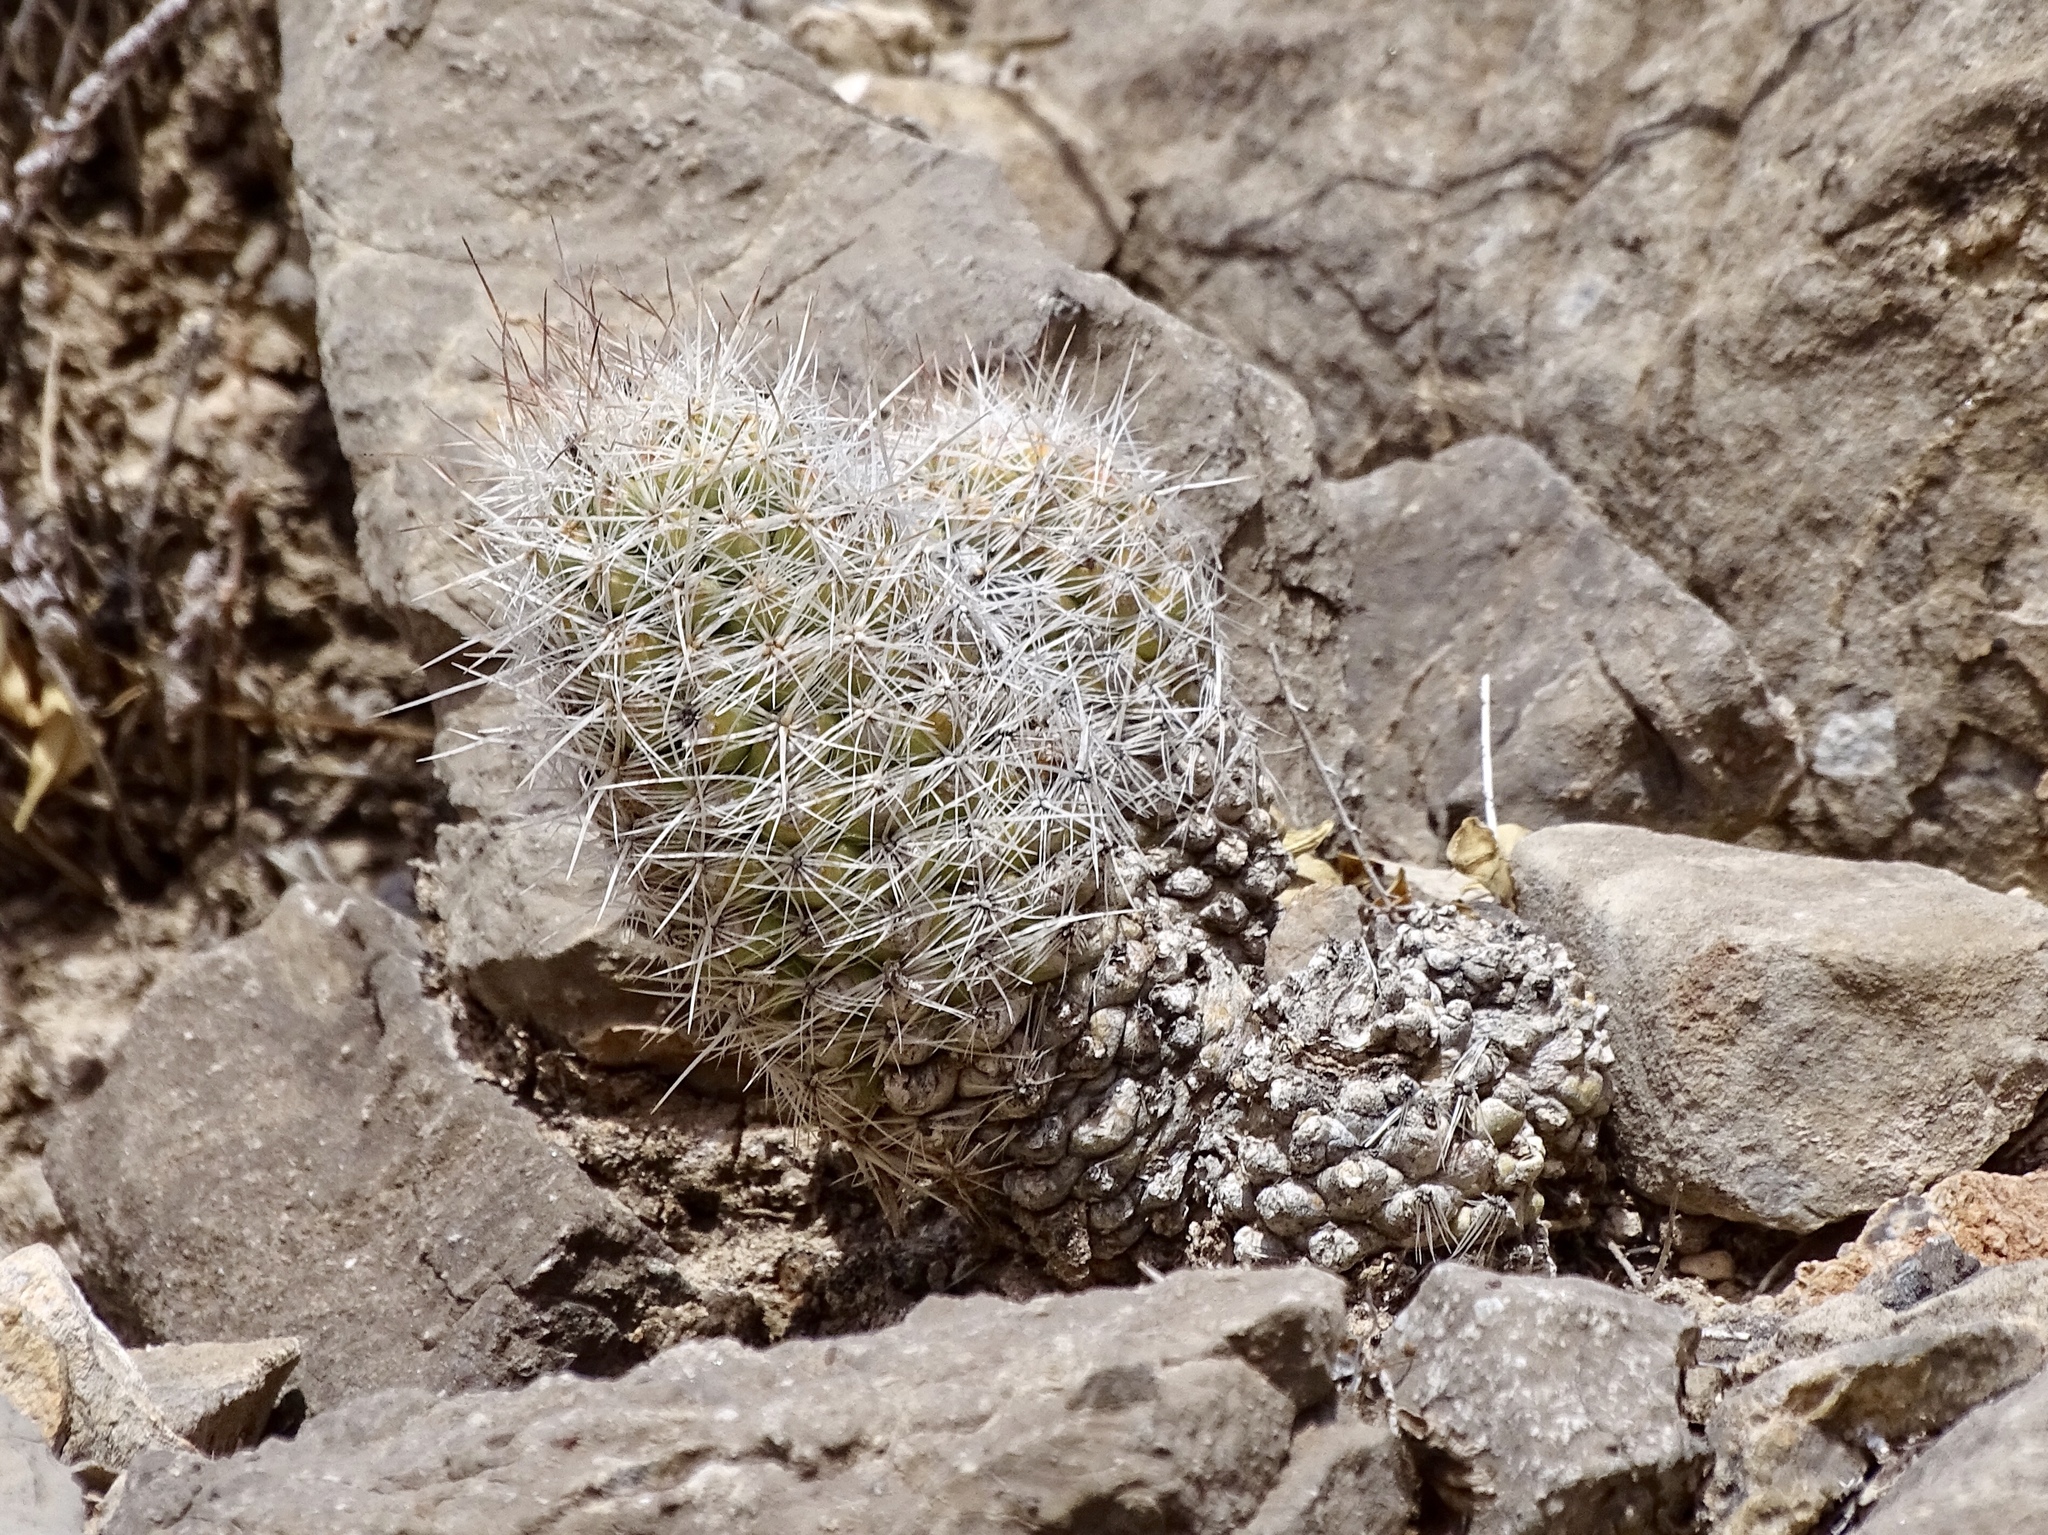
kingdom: Plantae
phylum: Tracheophyta
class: Magnoliopsida
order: Caryophyllales
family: Cactaceae
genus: Pelecyphora
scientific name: Pelecyphora tuberculosa
